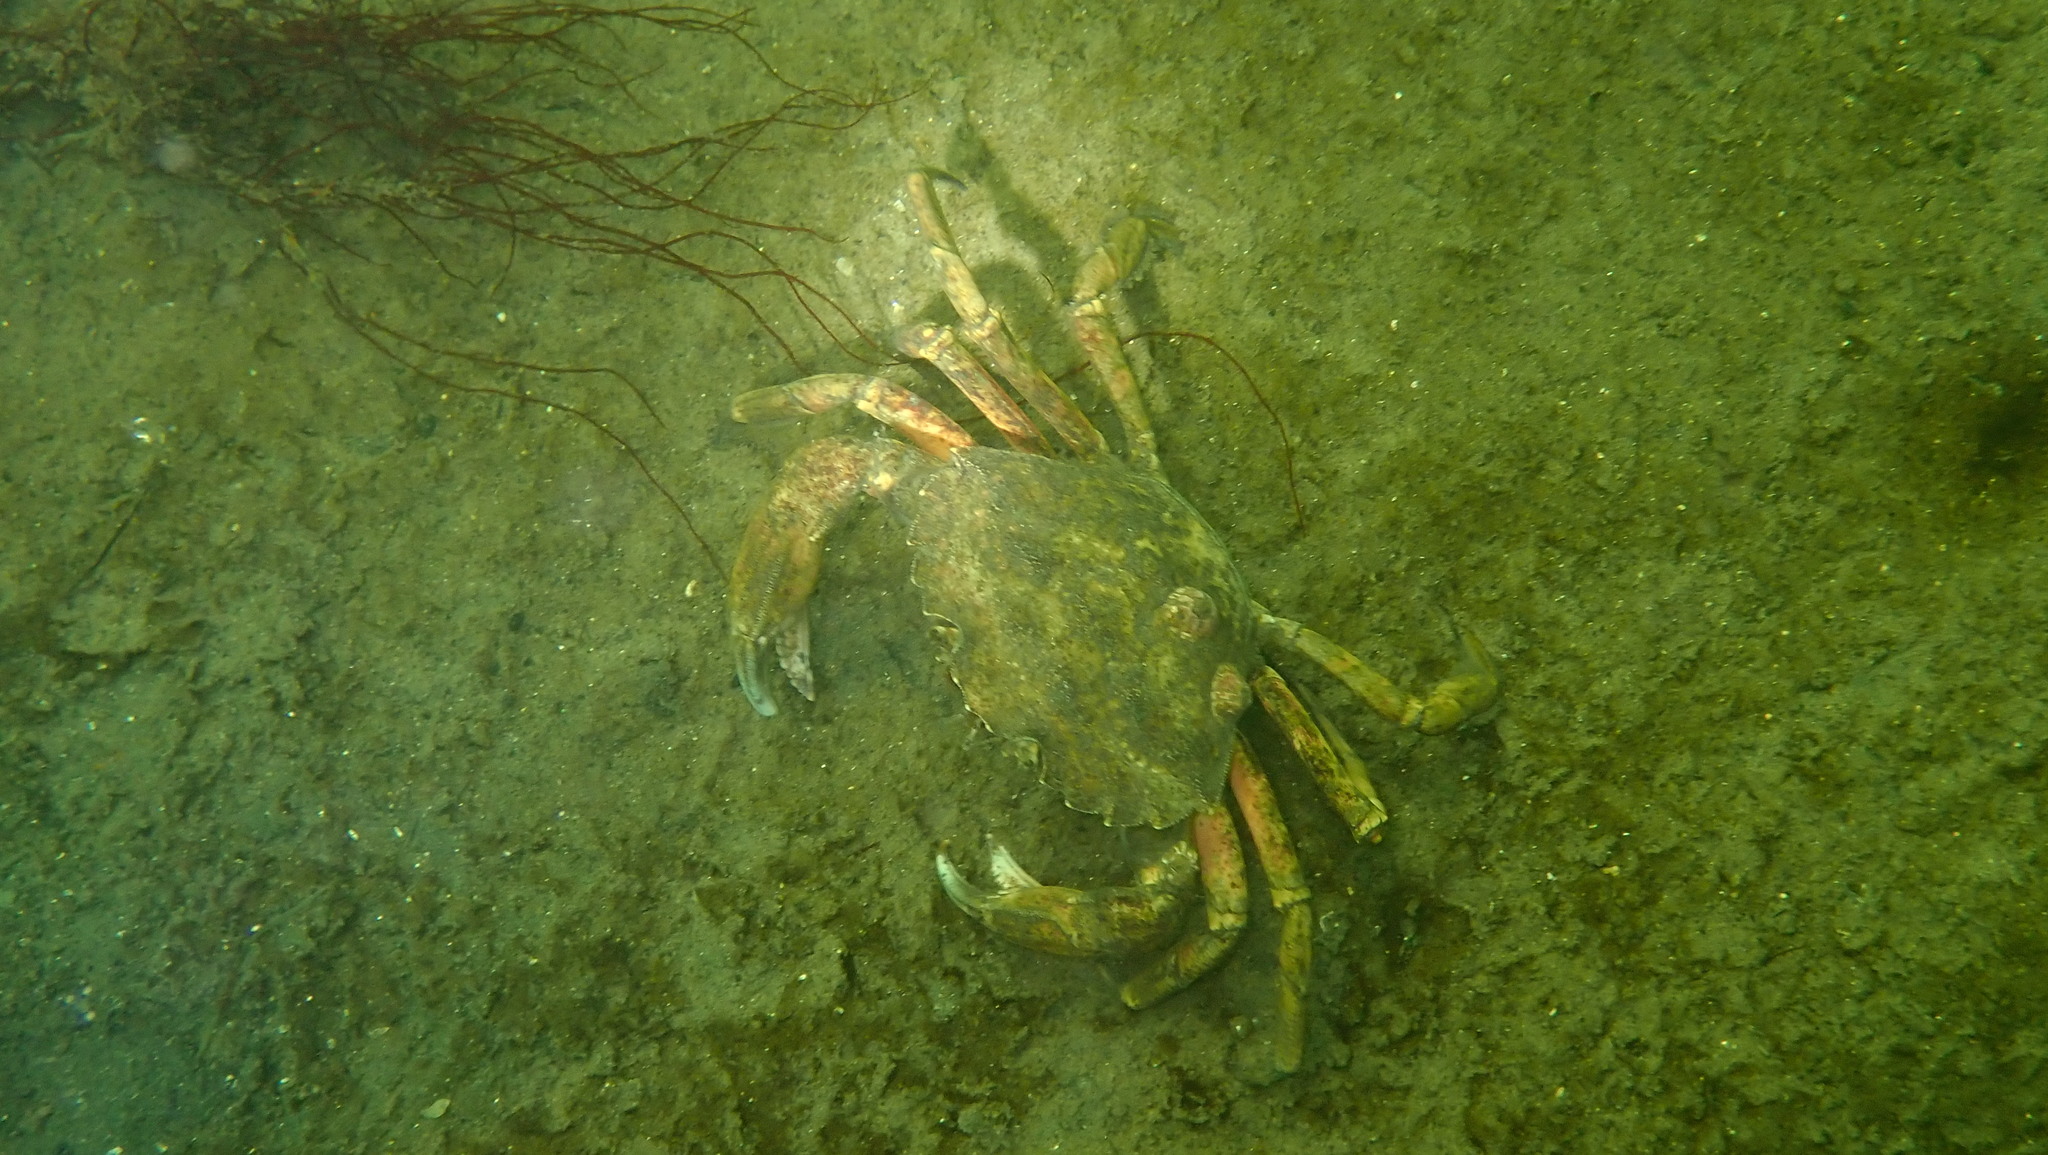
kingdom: Animalia
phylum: Arthropoda
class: Malacostraca
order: Decapoda
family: Carcinidae
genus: Carcinus
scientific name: Carcinus maenas
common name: European green crab
